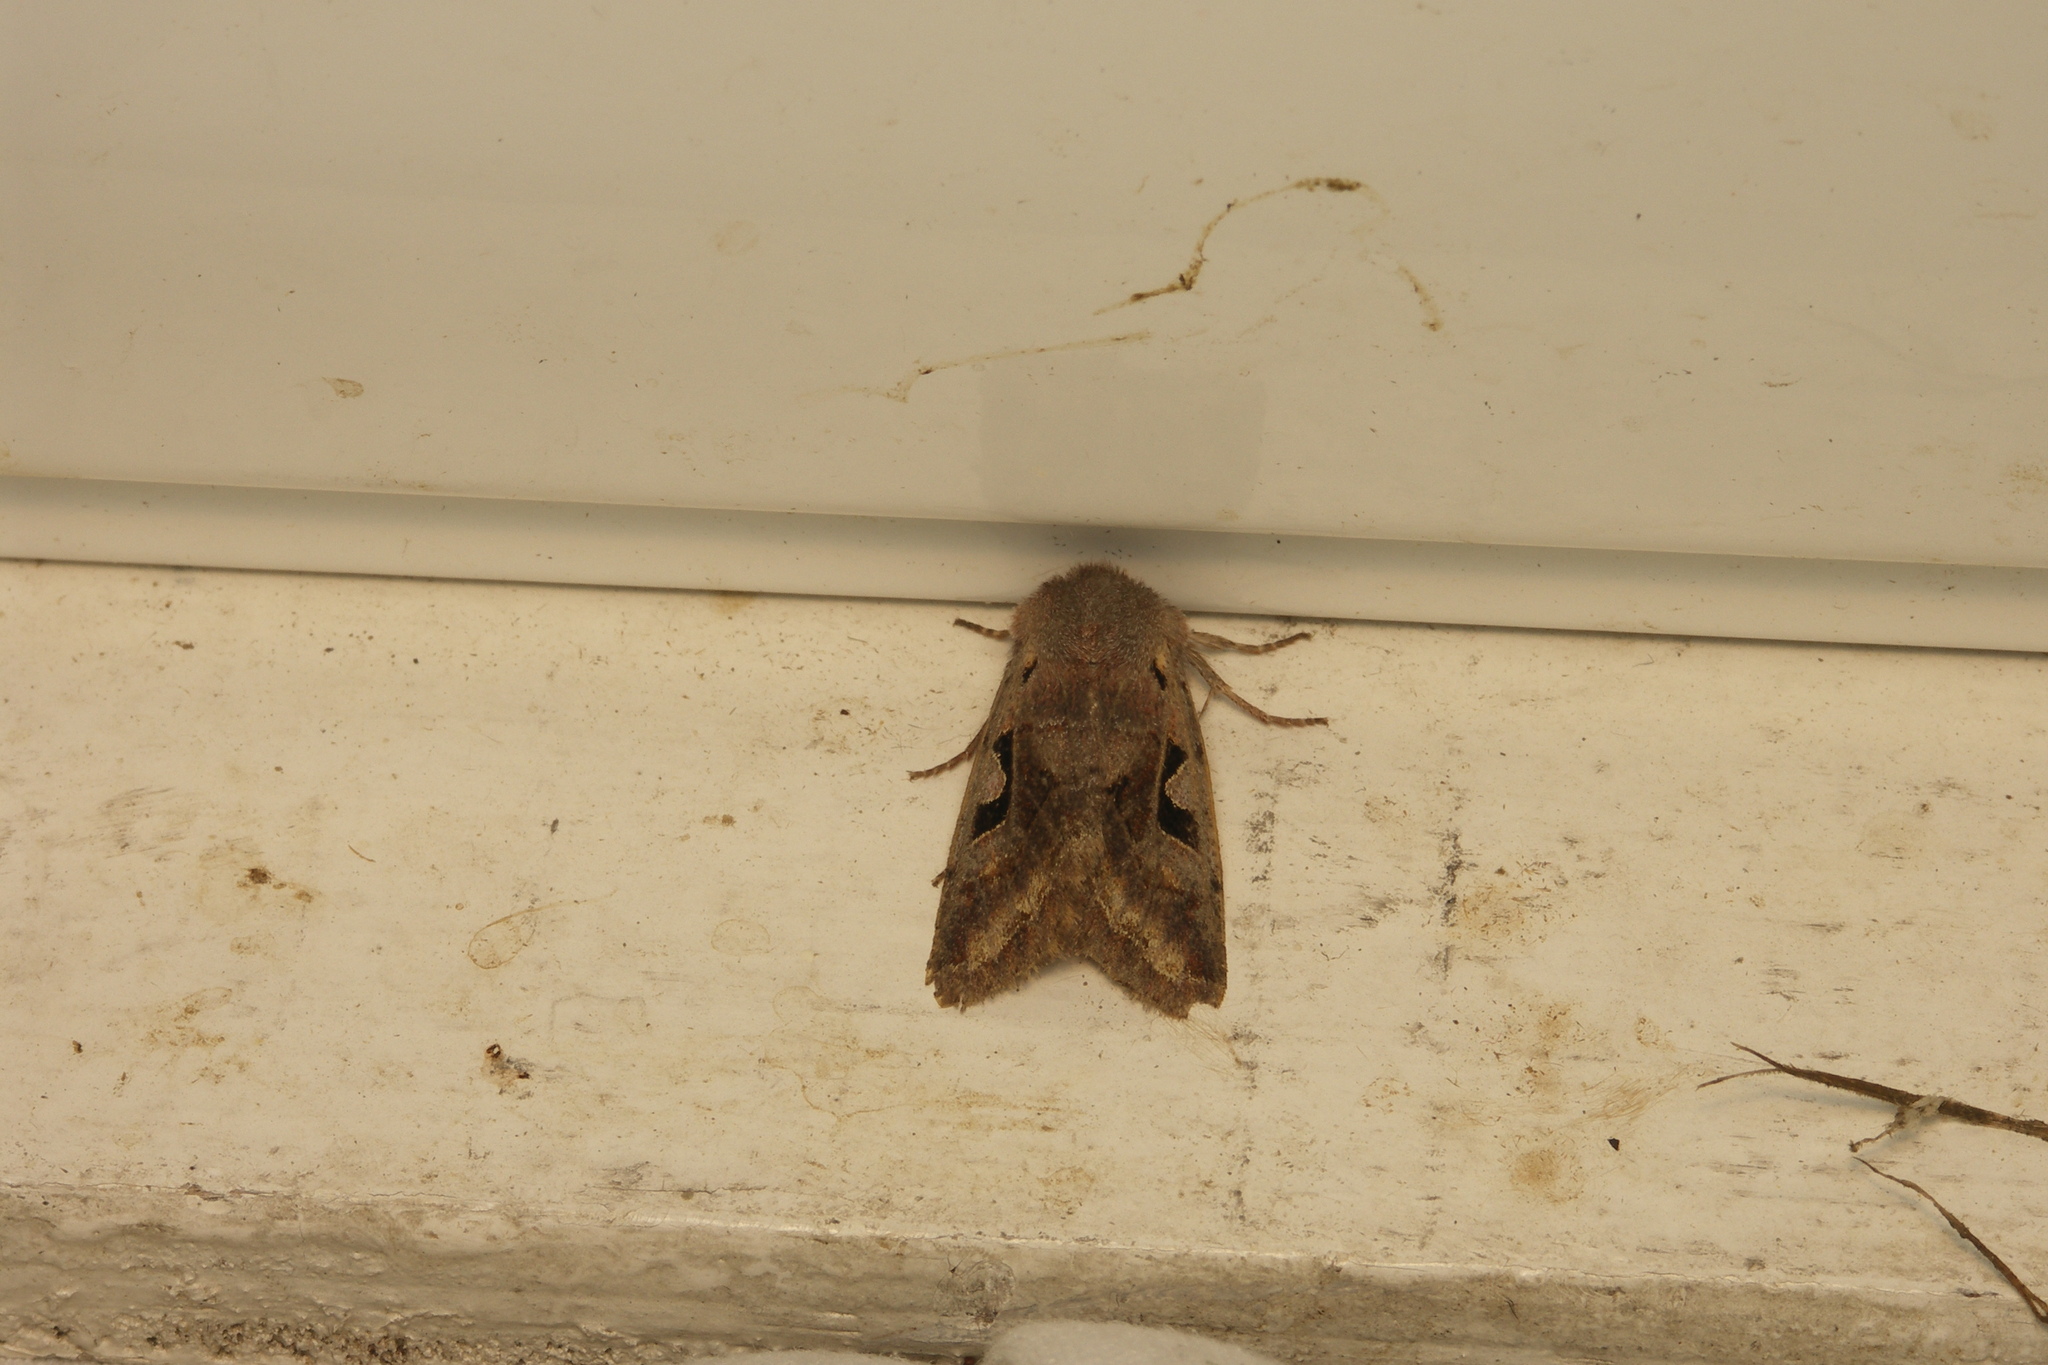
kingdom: Animalia
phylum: Arthropoda
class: Insecta
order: Lepidoptera
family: Noctuidae
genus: Orthosia
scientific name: Orthosia gothica
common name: Hebrew character
